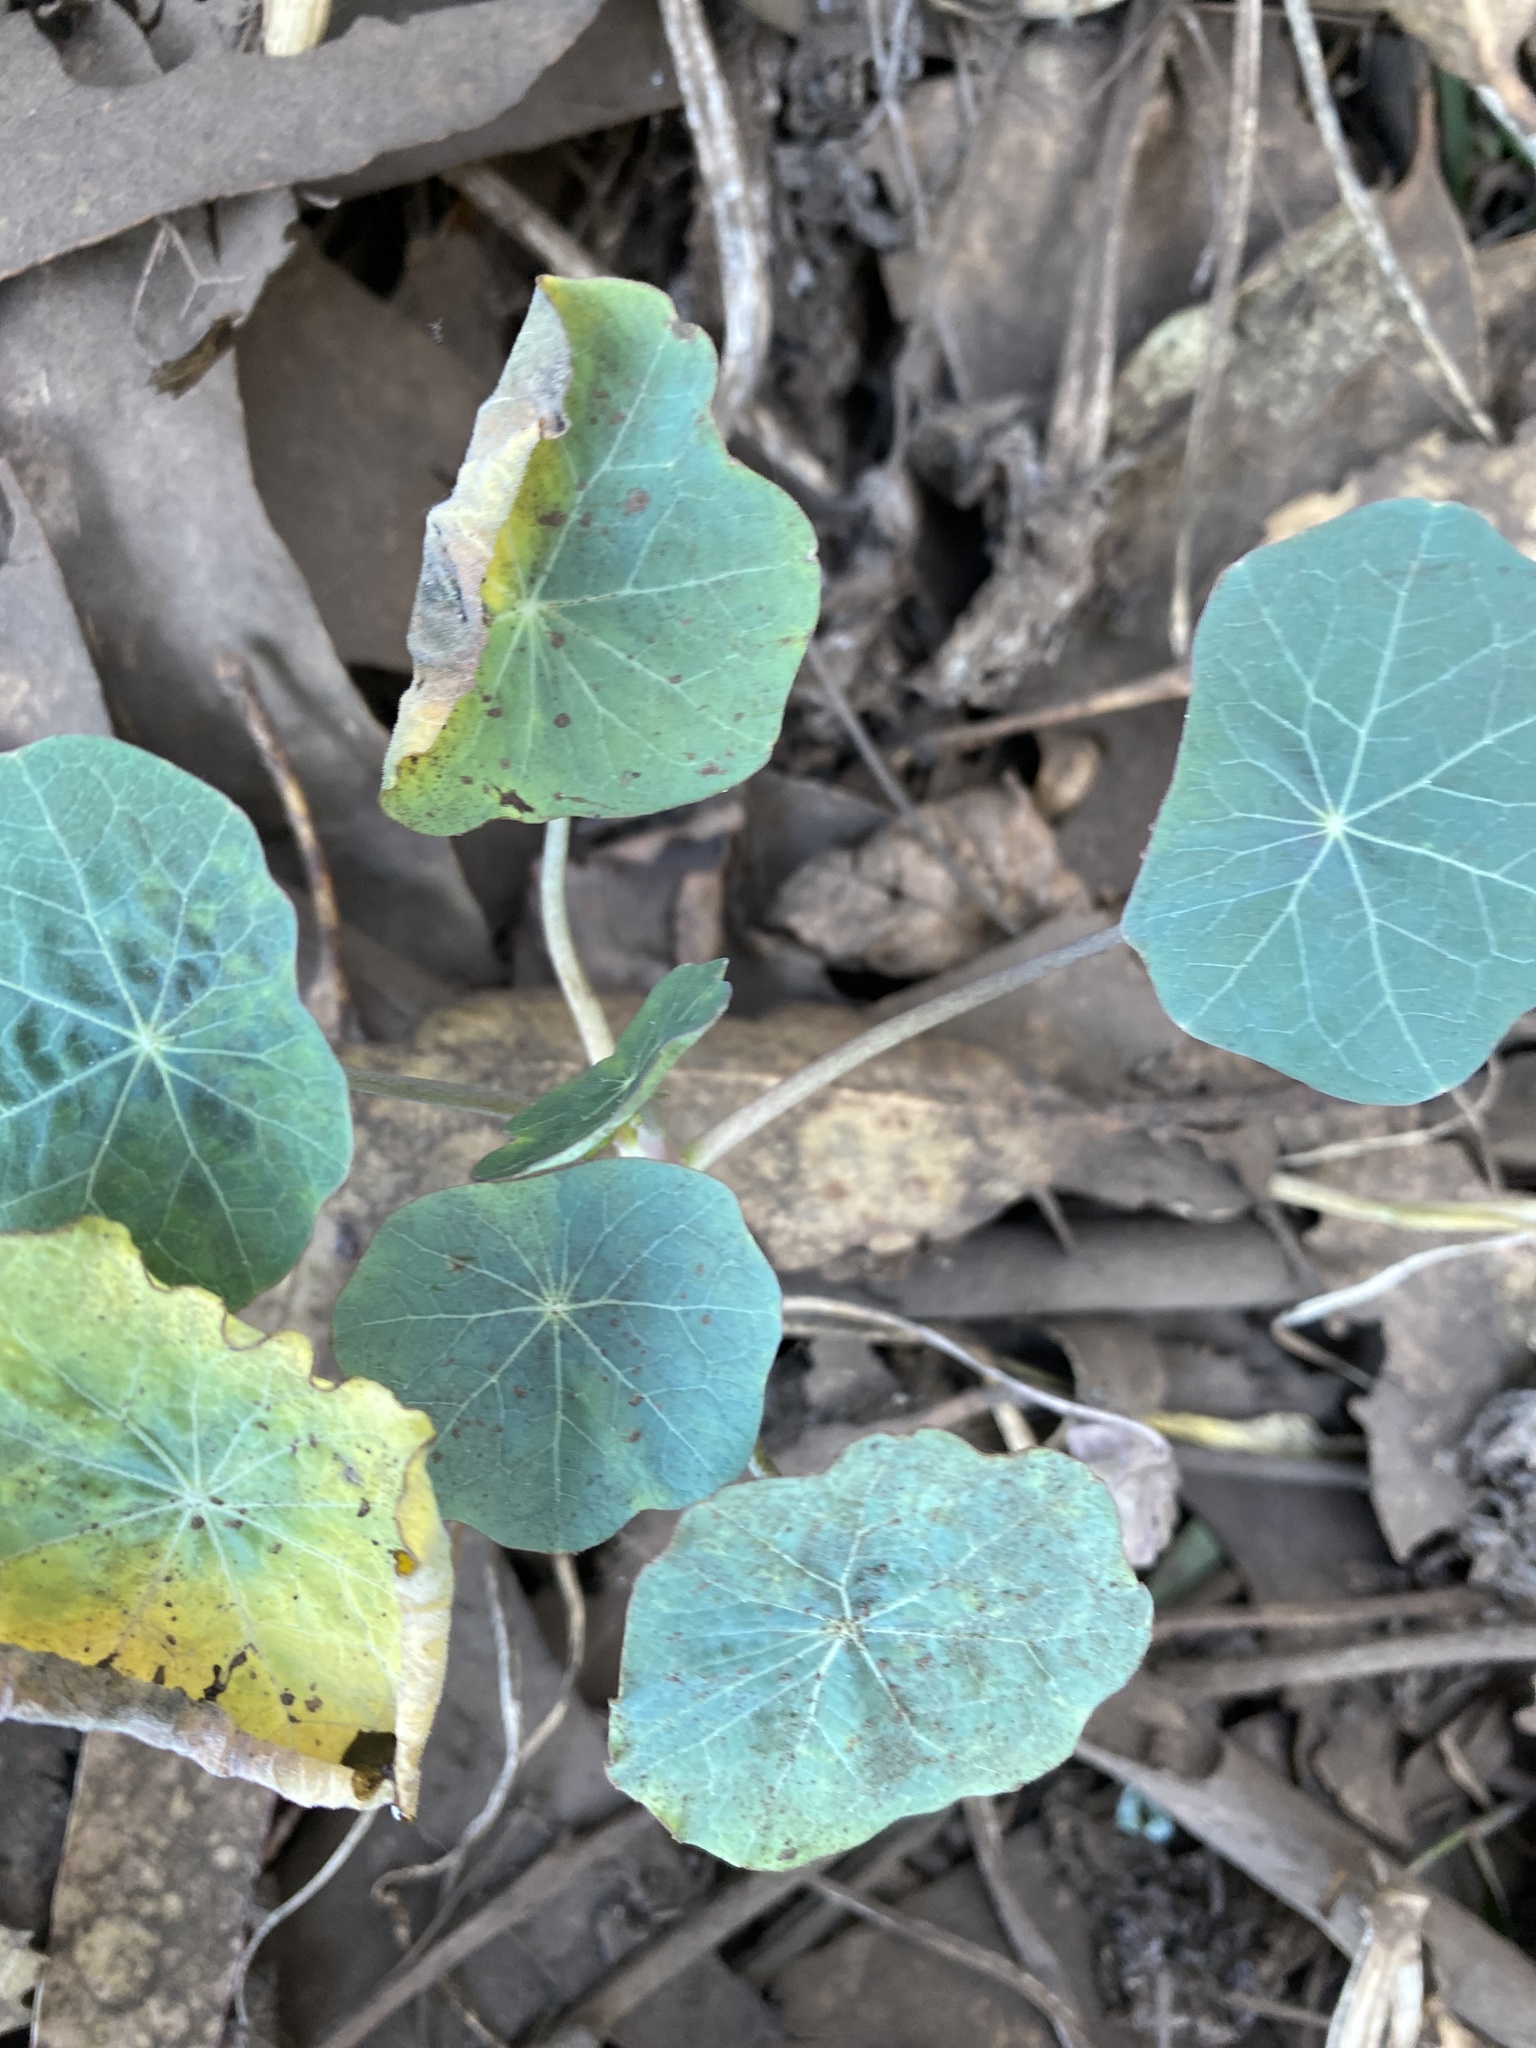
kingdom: Plantae
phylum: Tracheophyta
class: Magnoliopsida
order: Brassicales
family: Tropaeolaceae
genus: Tropaeolum
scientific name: Tropaeolum majus
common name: Nasturtium
